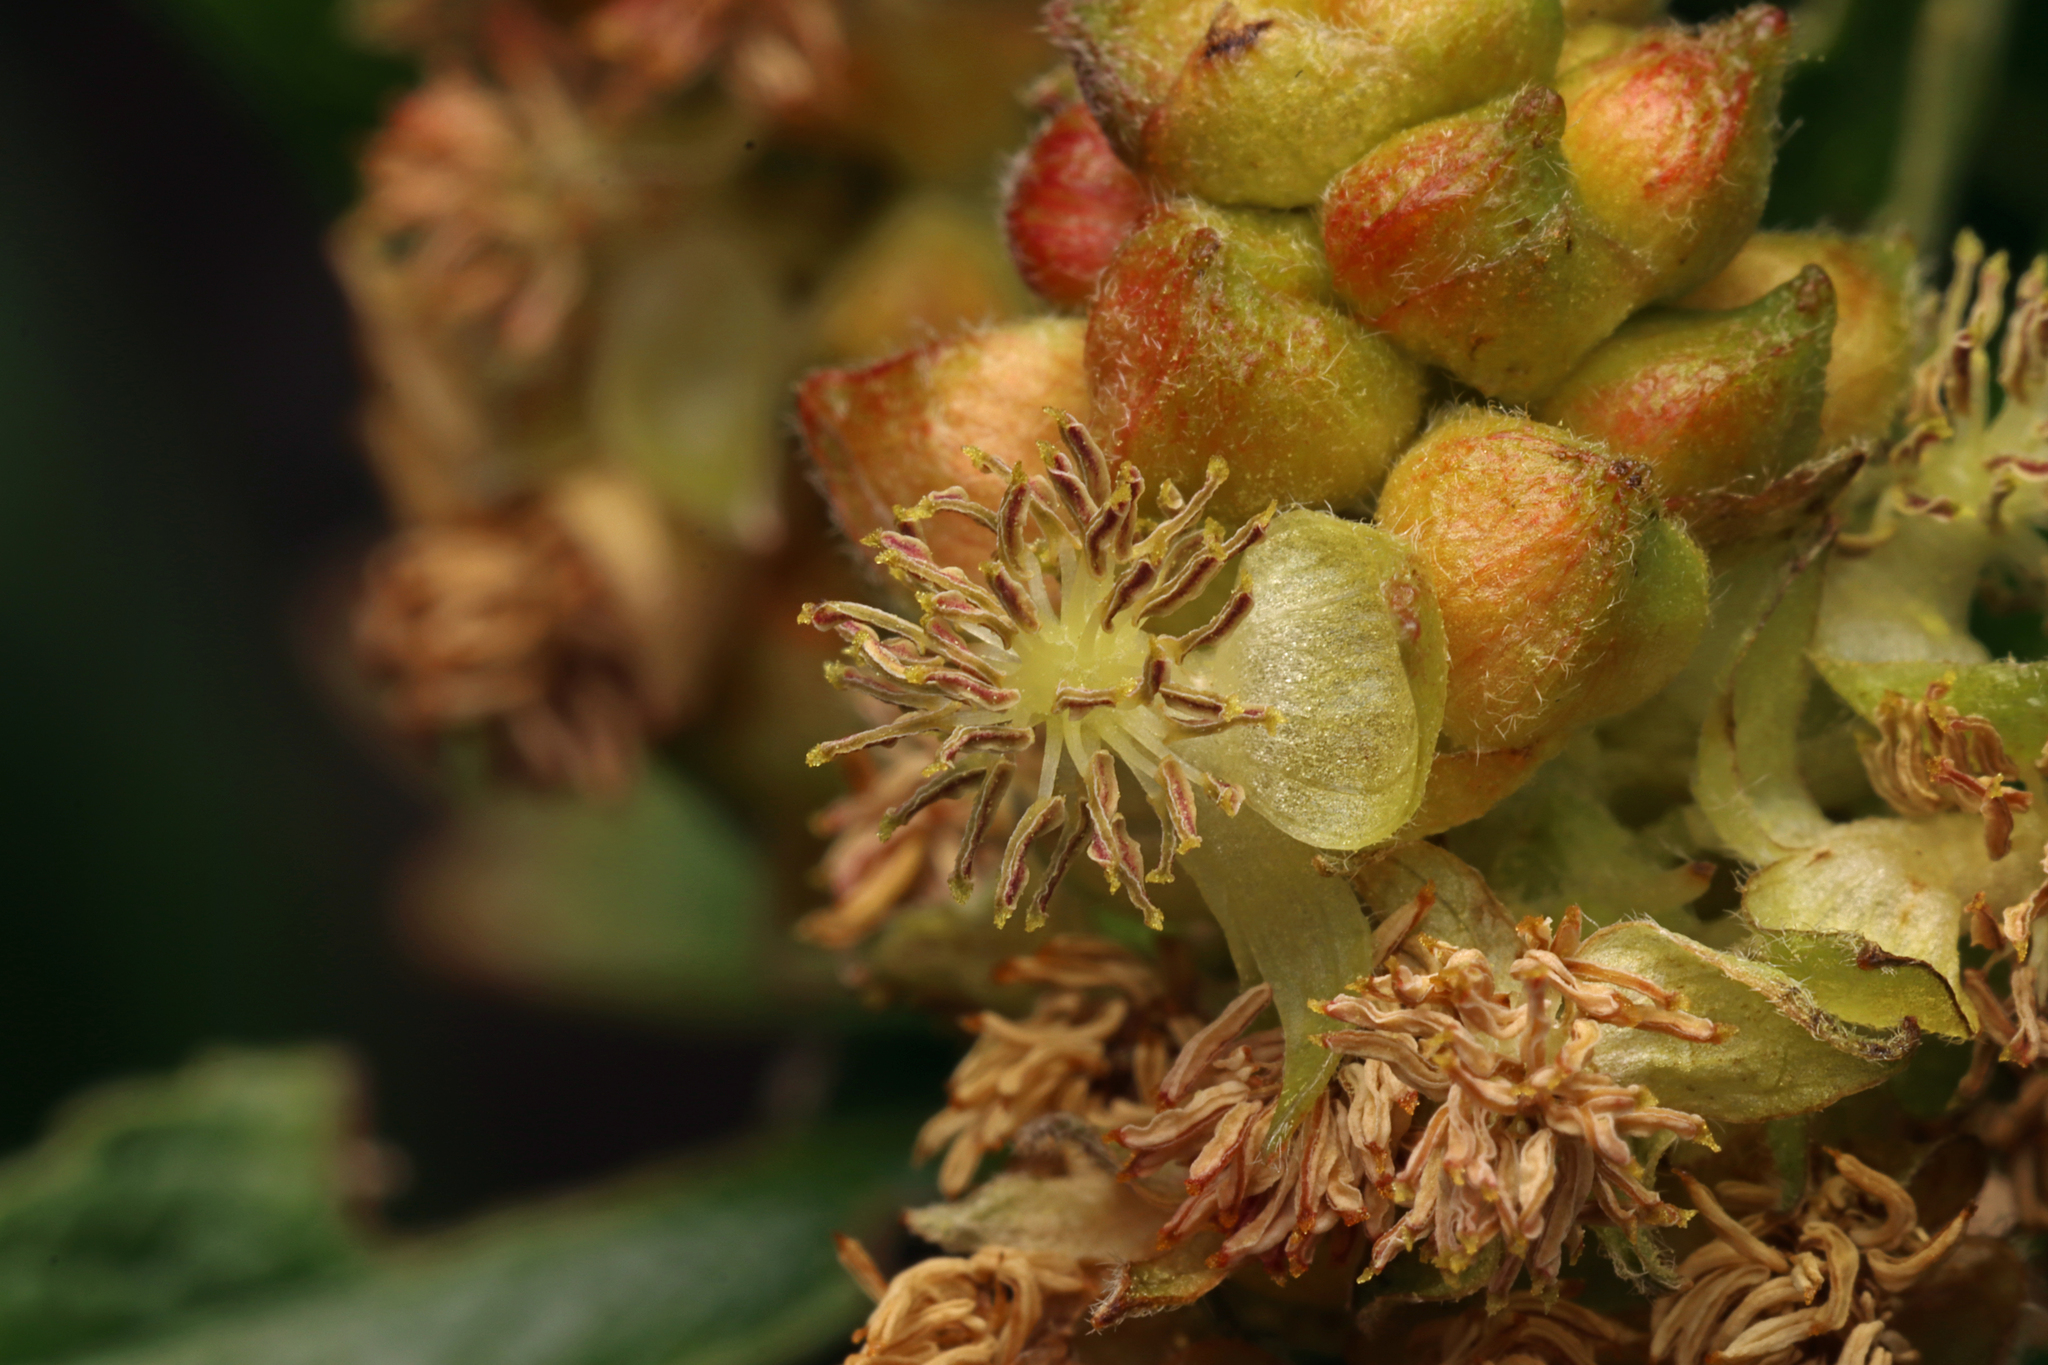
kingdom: Plantae
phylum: Tracheophyta
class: Magnoliopsida
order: Malpighiales
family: Euphorbiaceae
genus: Adriana
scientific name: Adriana quadripartita
